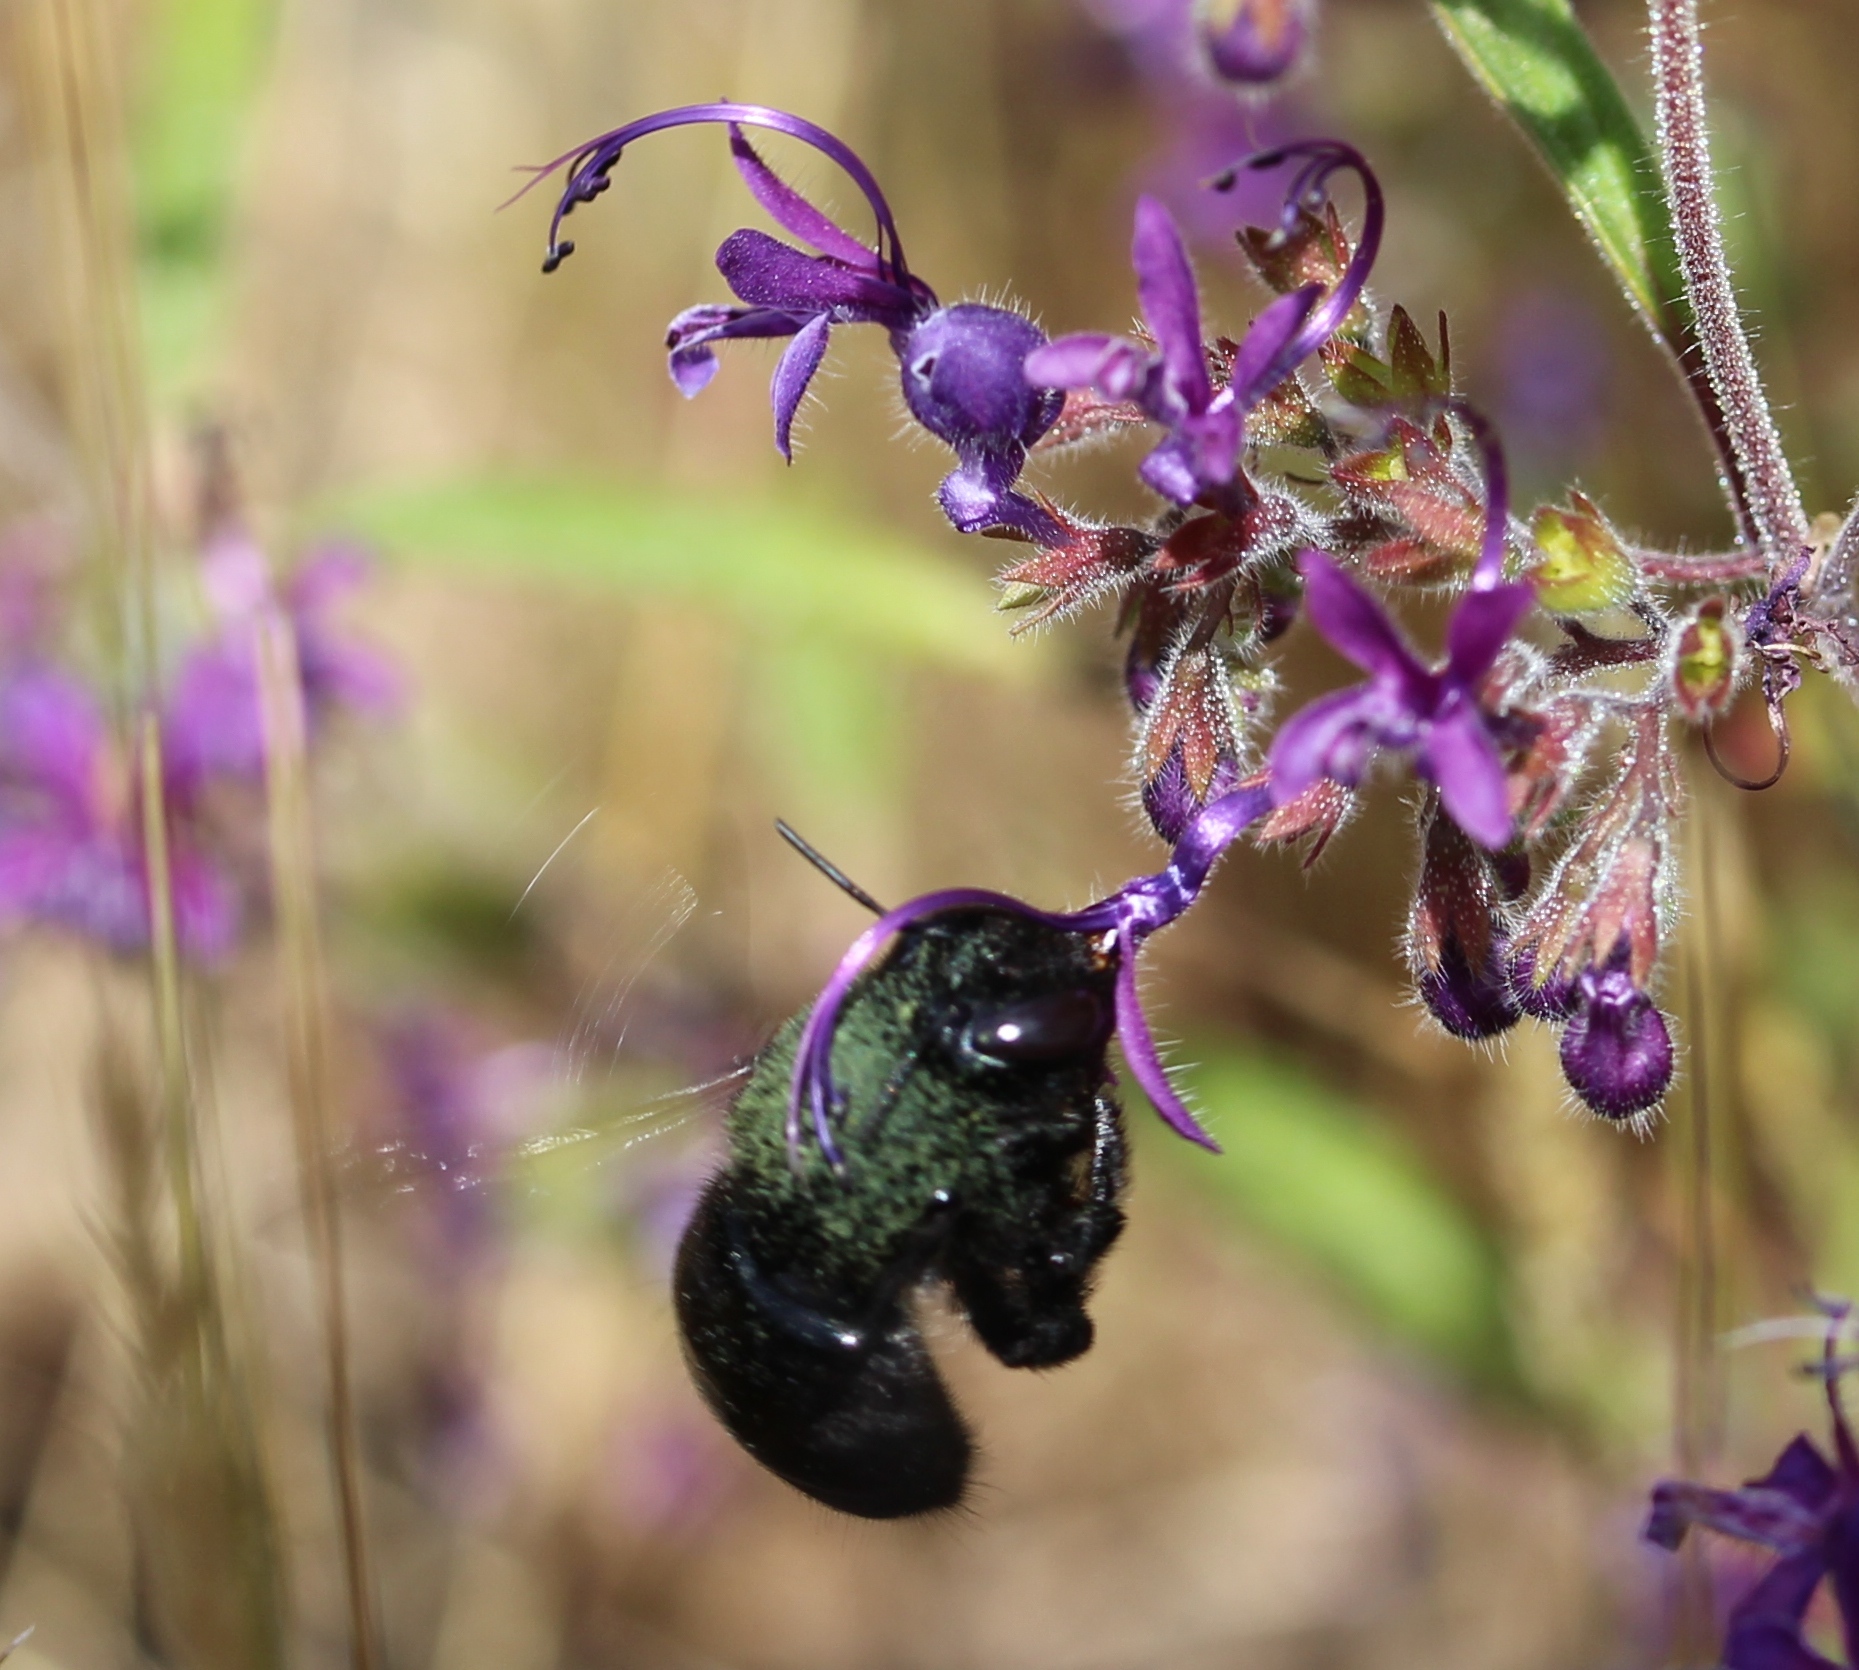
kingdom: Animalia
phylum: Arthropoda
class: Insecta
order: Hymenoptera
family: Apidae
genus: Xylocopa
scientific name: Xylocopa tabaniformis
